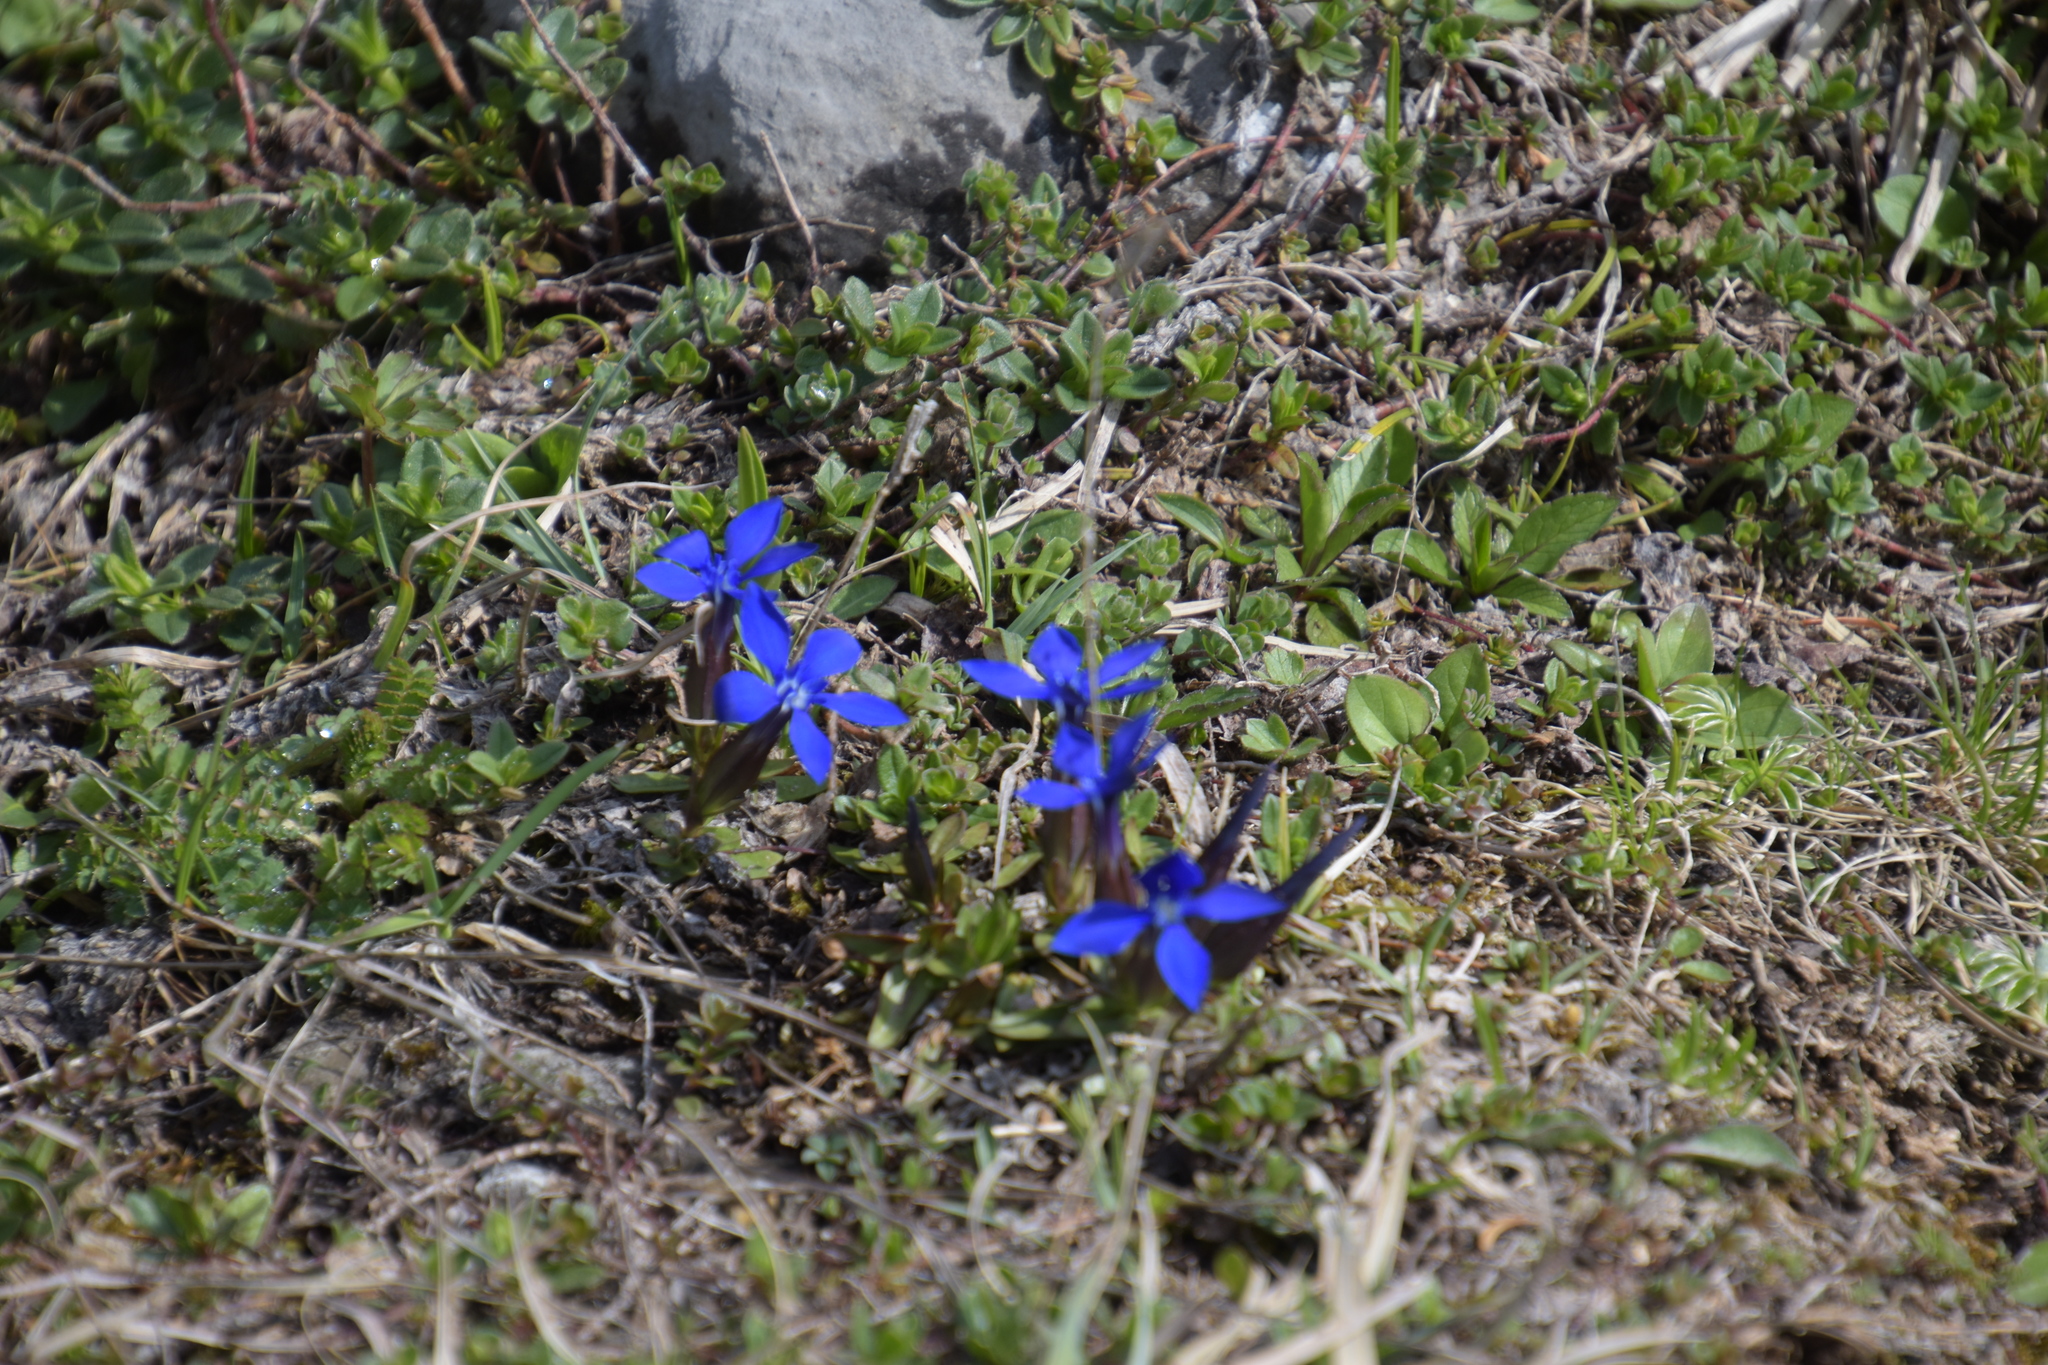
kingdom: Plantae
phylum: Tracheophyta
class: Magnoliopsida
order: Gentianales
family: Gentianaceae
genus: Gentiana
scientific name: Gentiana verna
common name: Spring gentian
